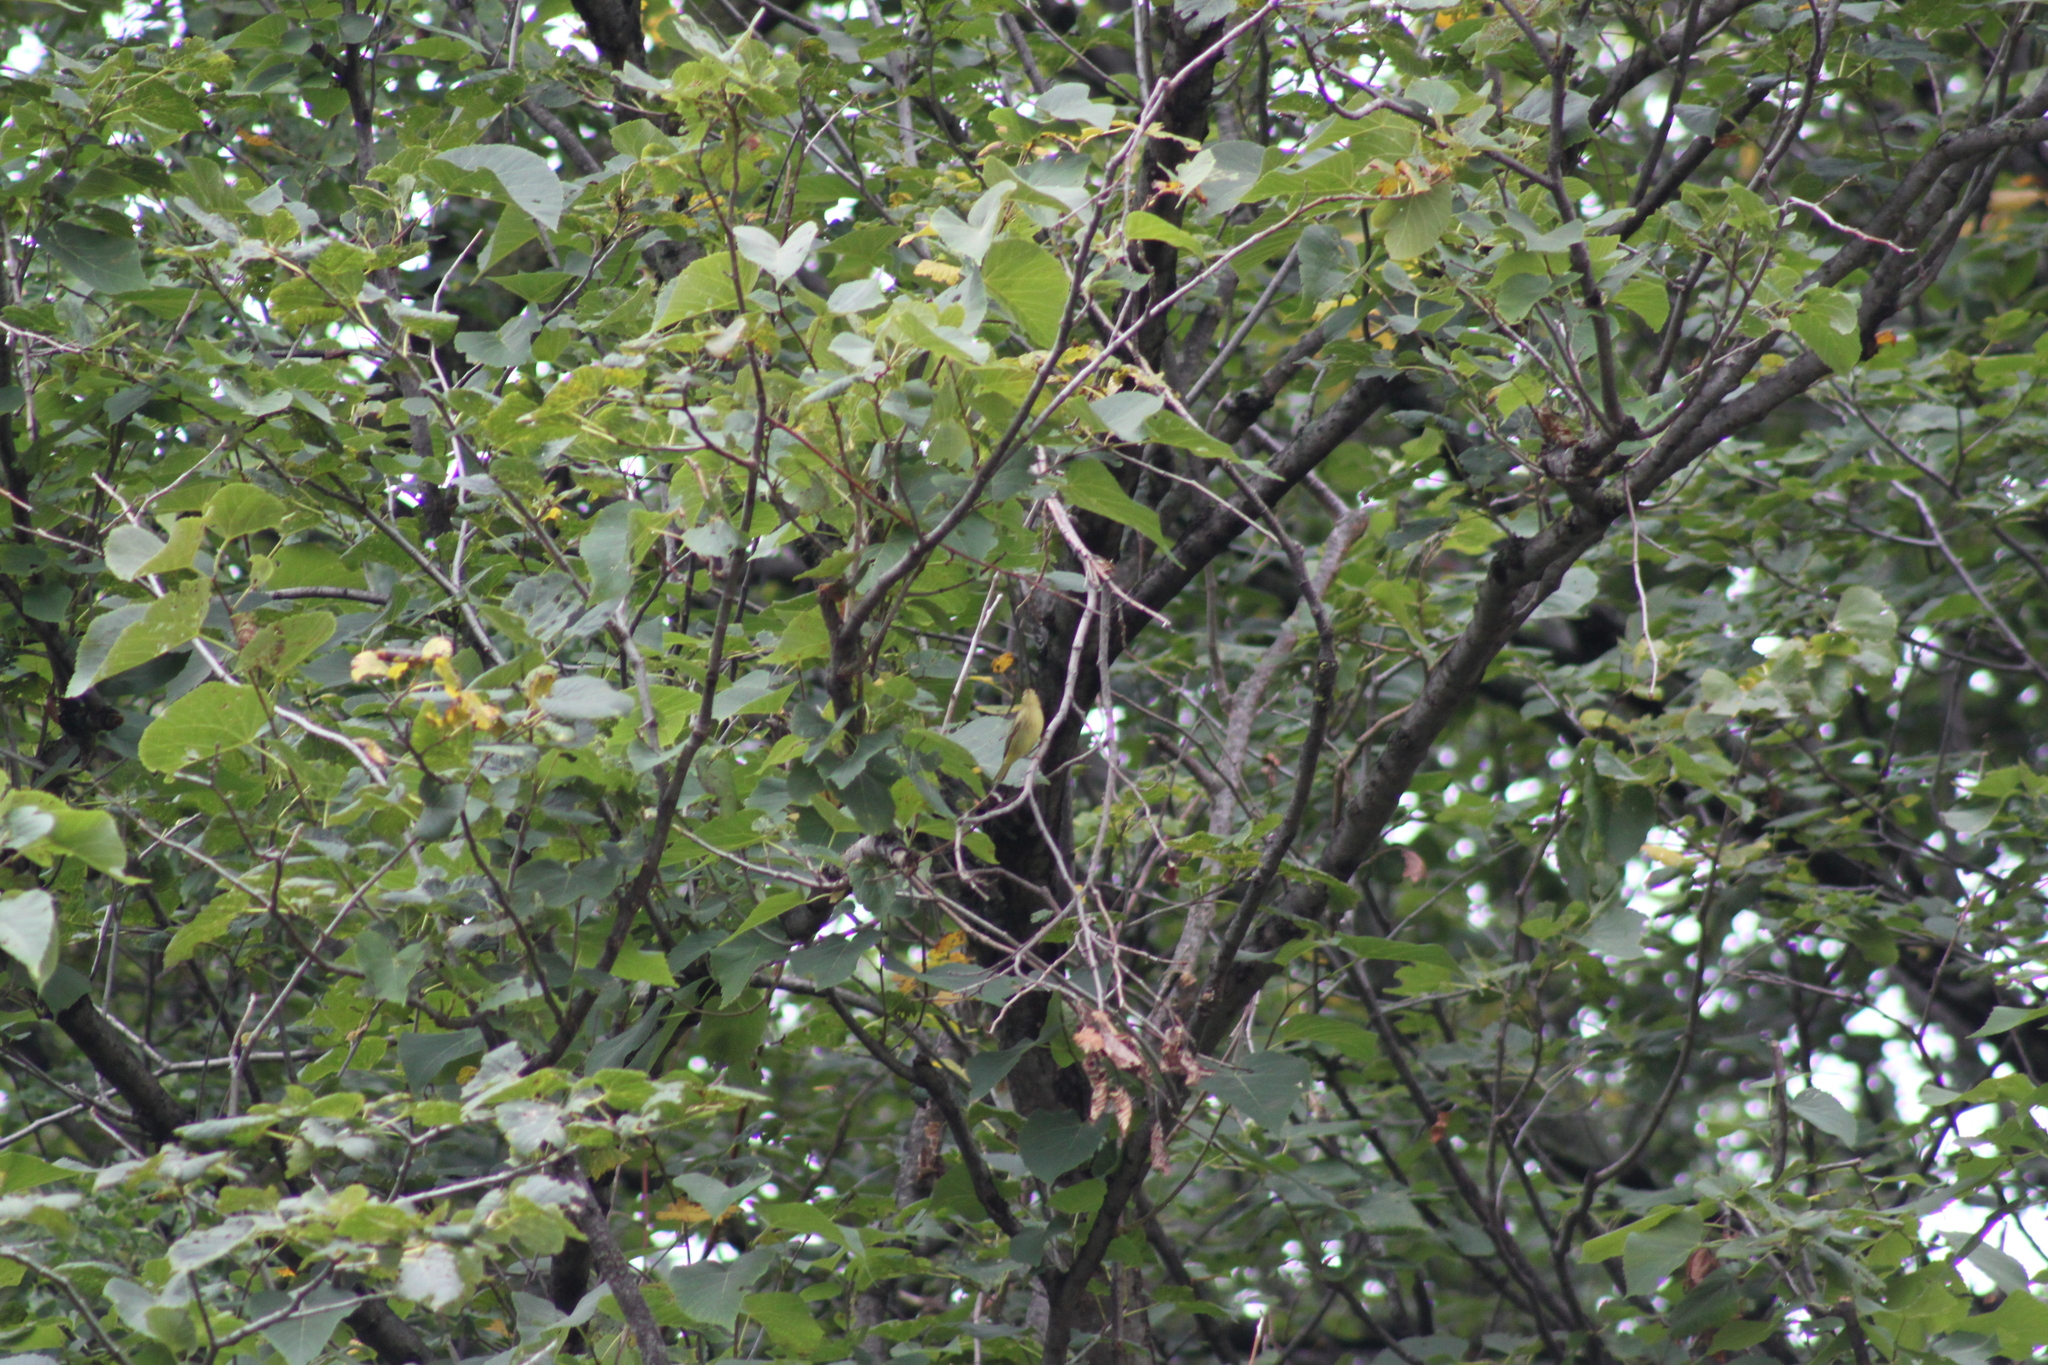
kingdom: Animalia
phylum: Chordata
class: Aves
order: Passeriformes
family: Parulidae
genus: Setophaga
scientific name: Setophaga petechia
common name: Yellow warbler
